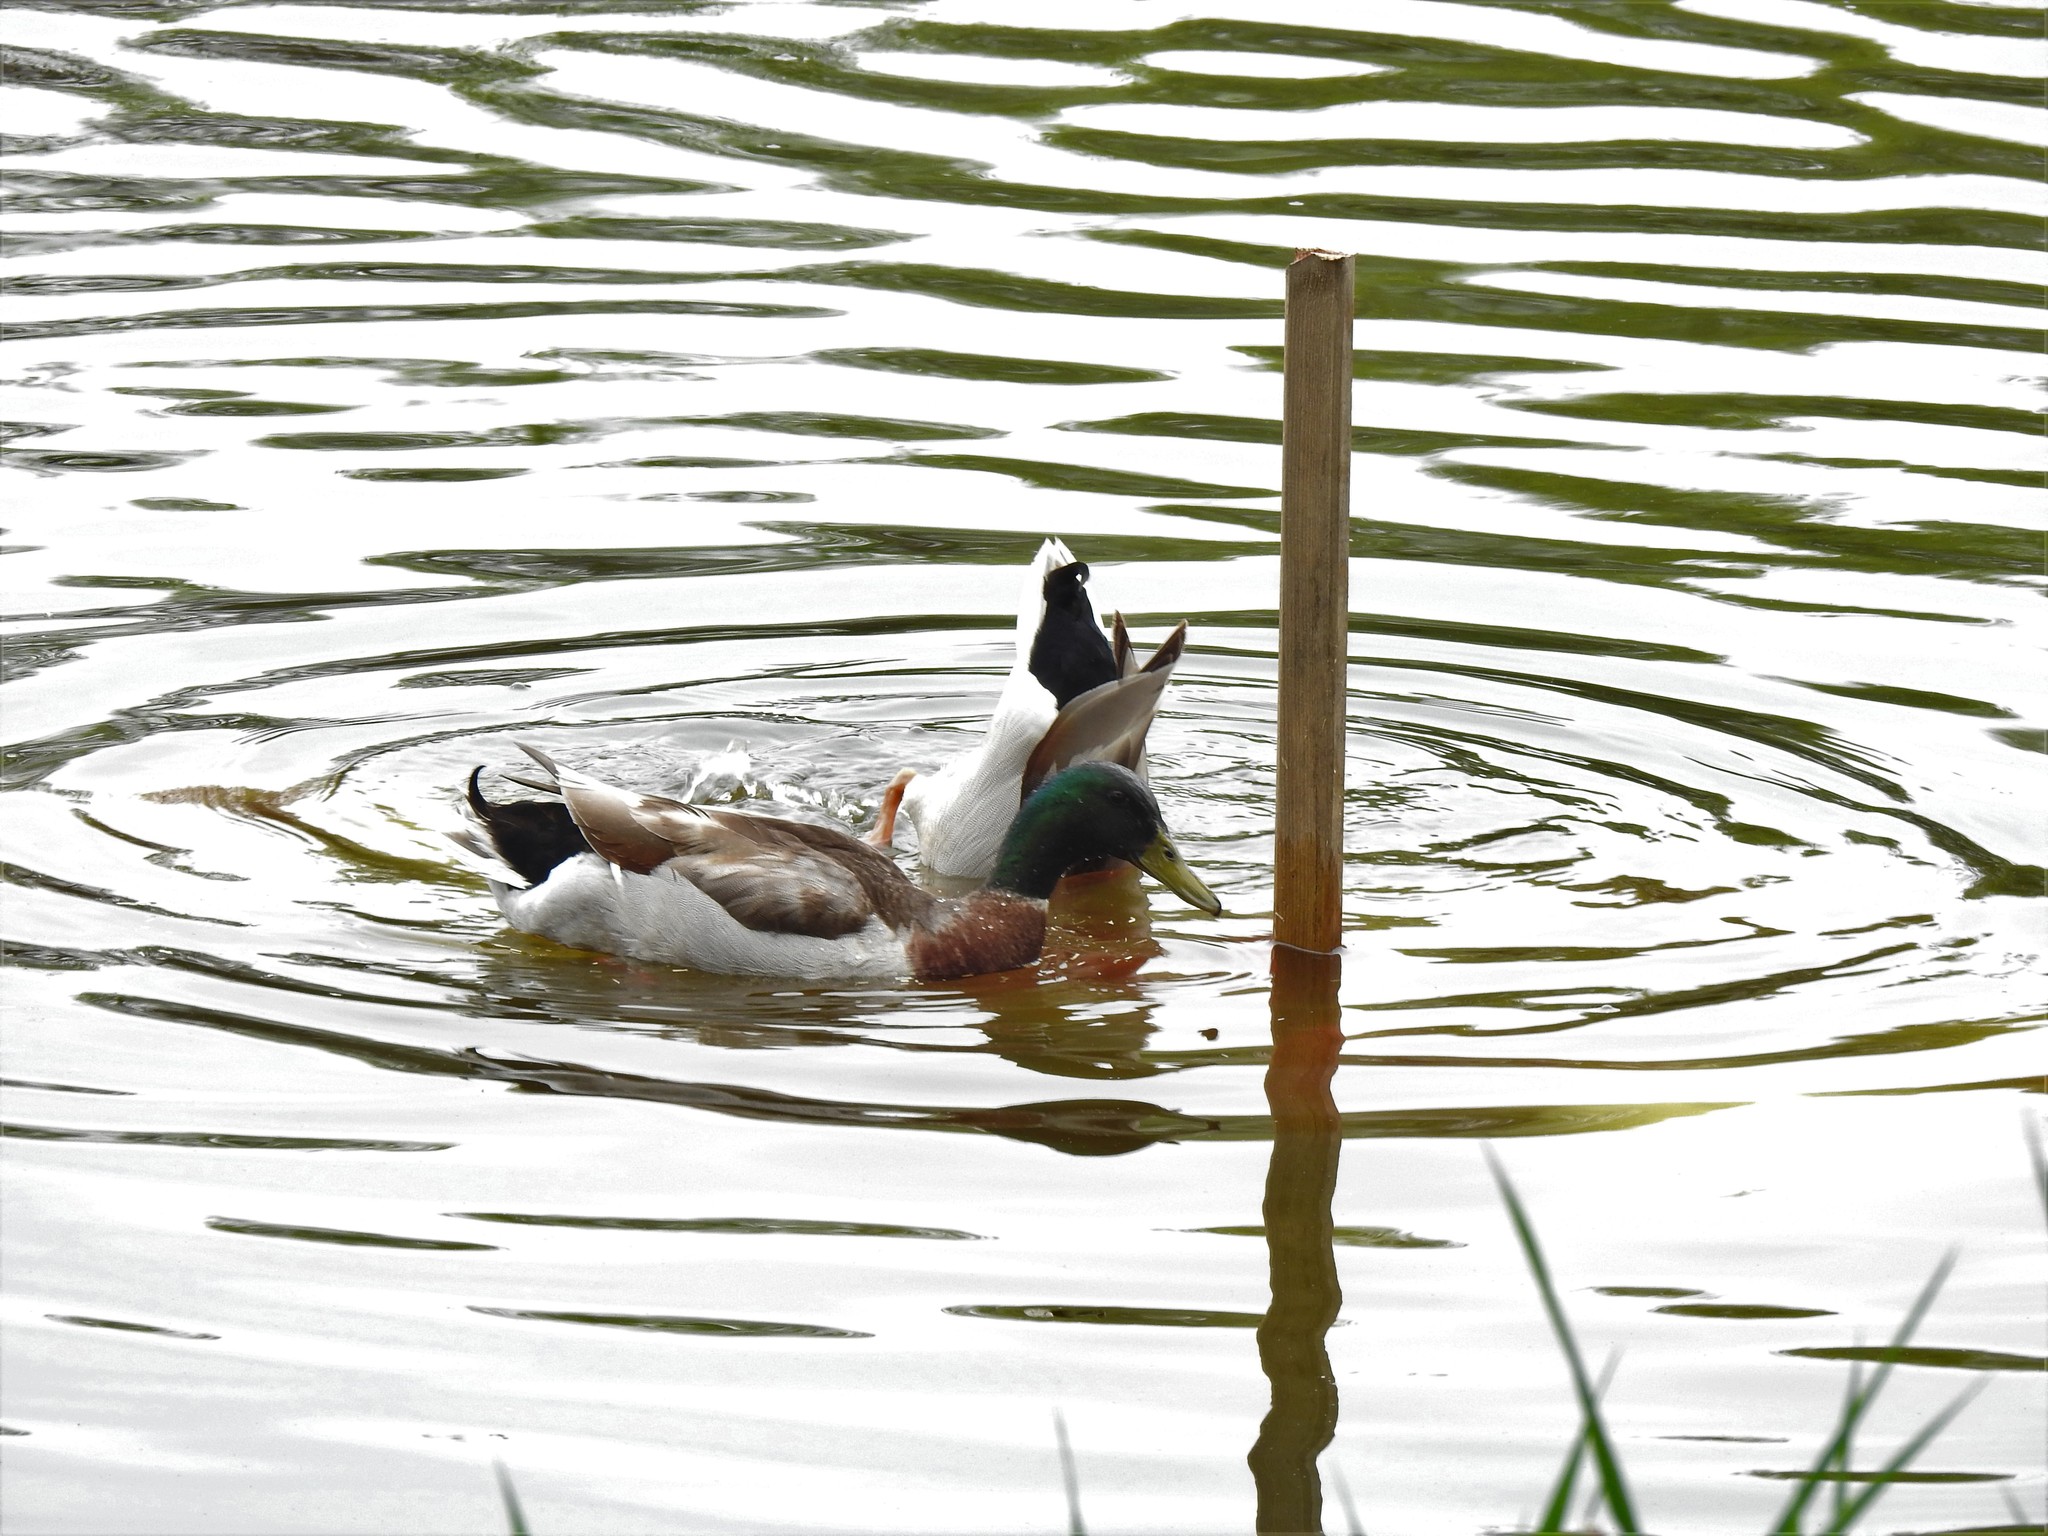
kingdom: Animalia
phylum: Chordata
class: Aves
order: Anseriformes
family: Anatidae
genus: Anas
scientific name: Anas platyrhynchos
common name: Mallard
